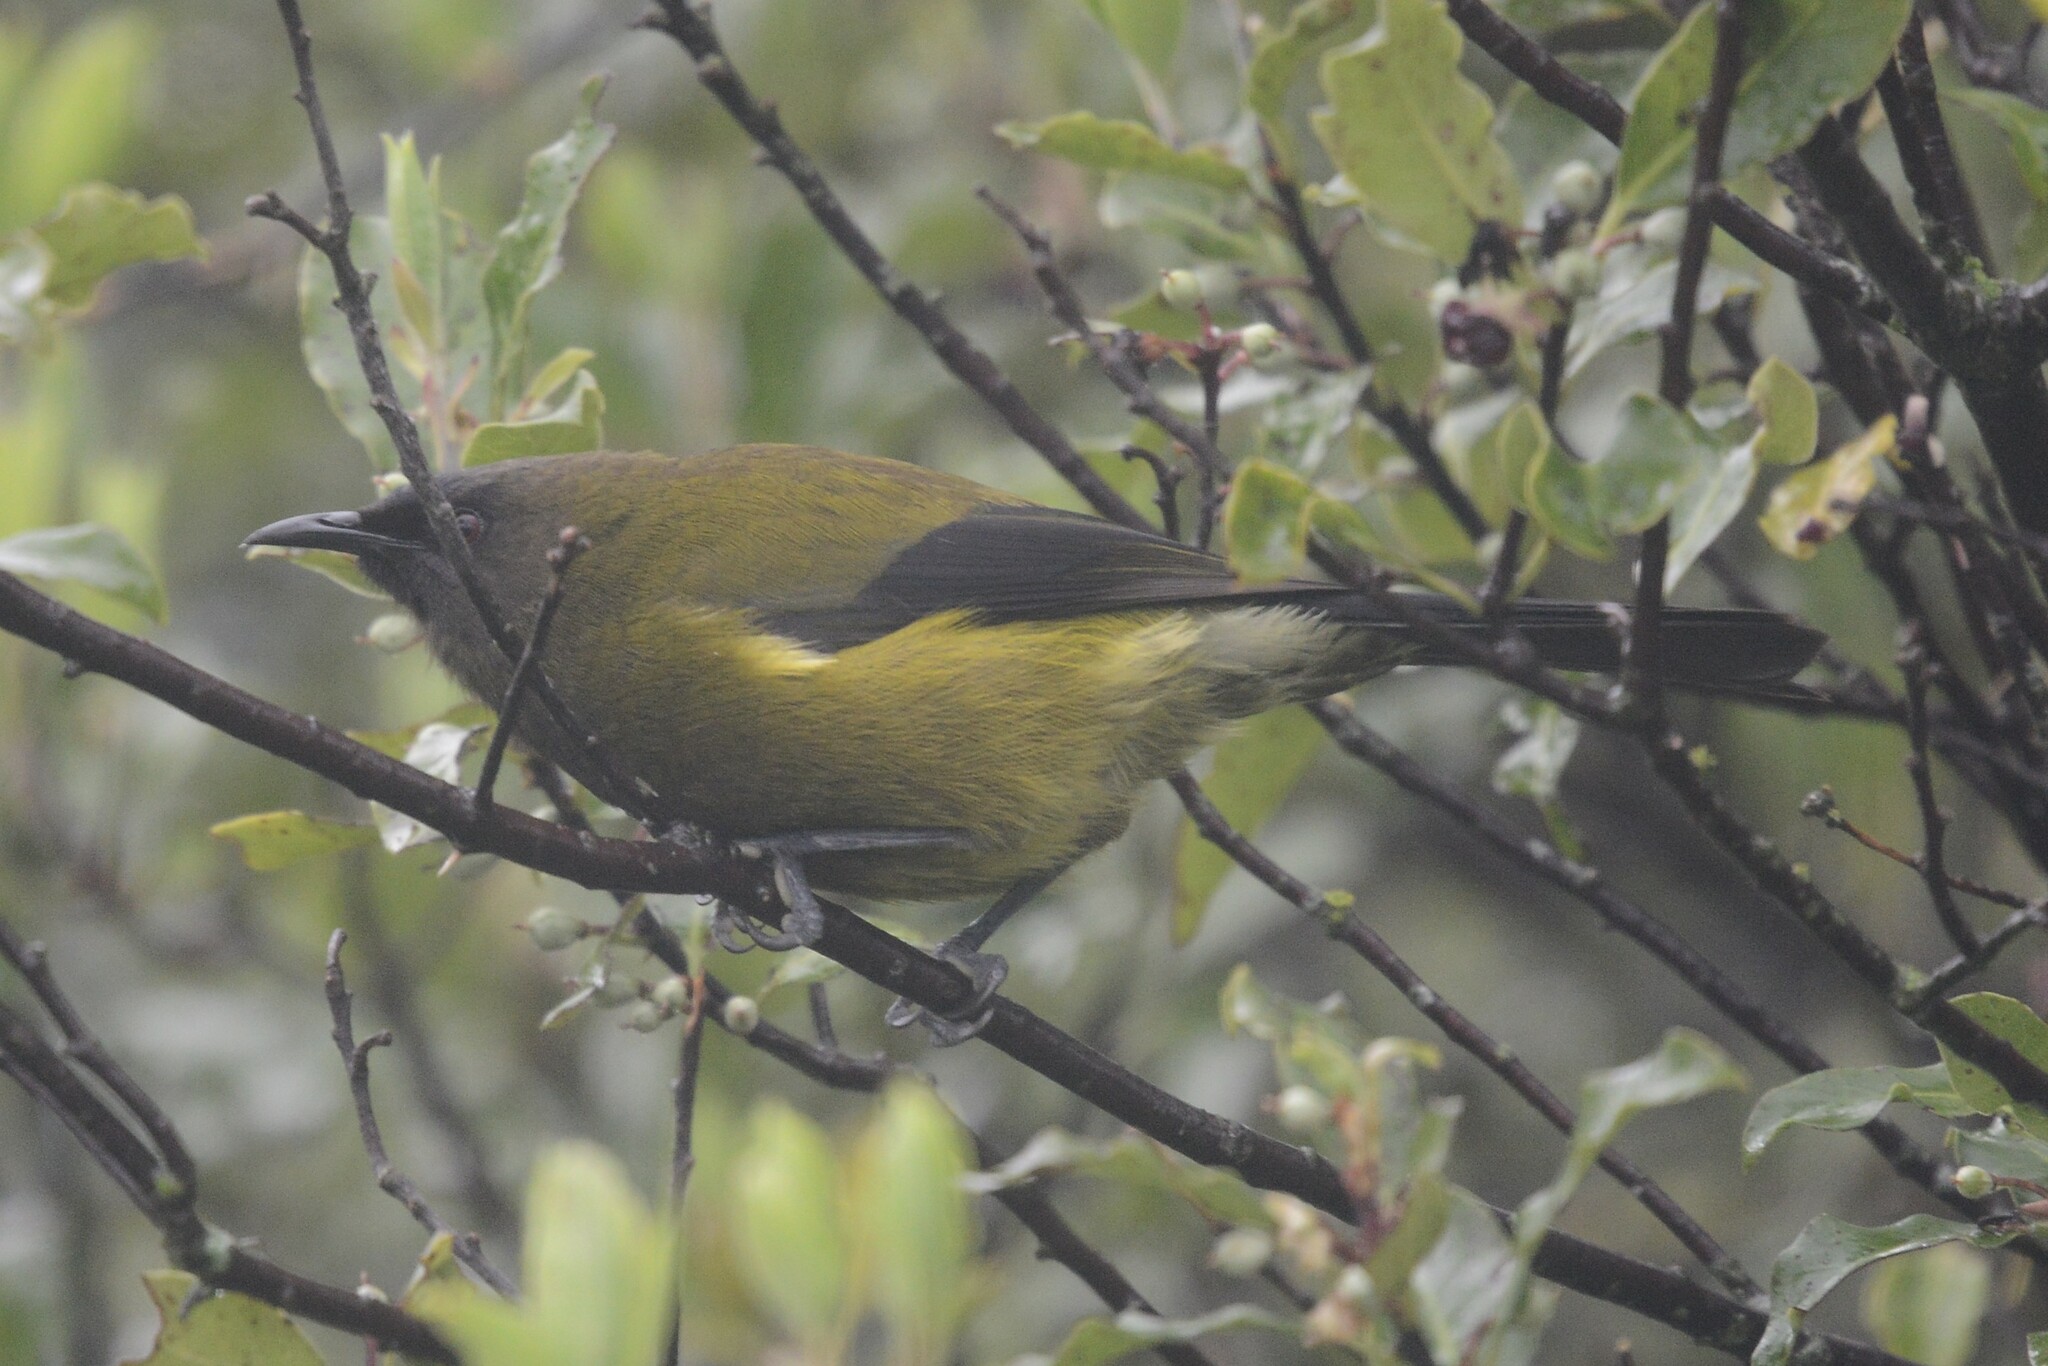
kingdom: Animalia
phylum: Chordata
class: Aves
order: Passeriformes
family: Meliphagidae
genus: Anthornis
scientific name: Anthornis melanura
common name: New zealand bellbird
